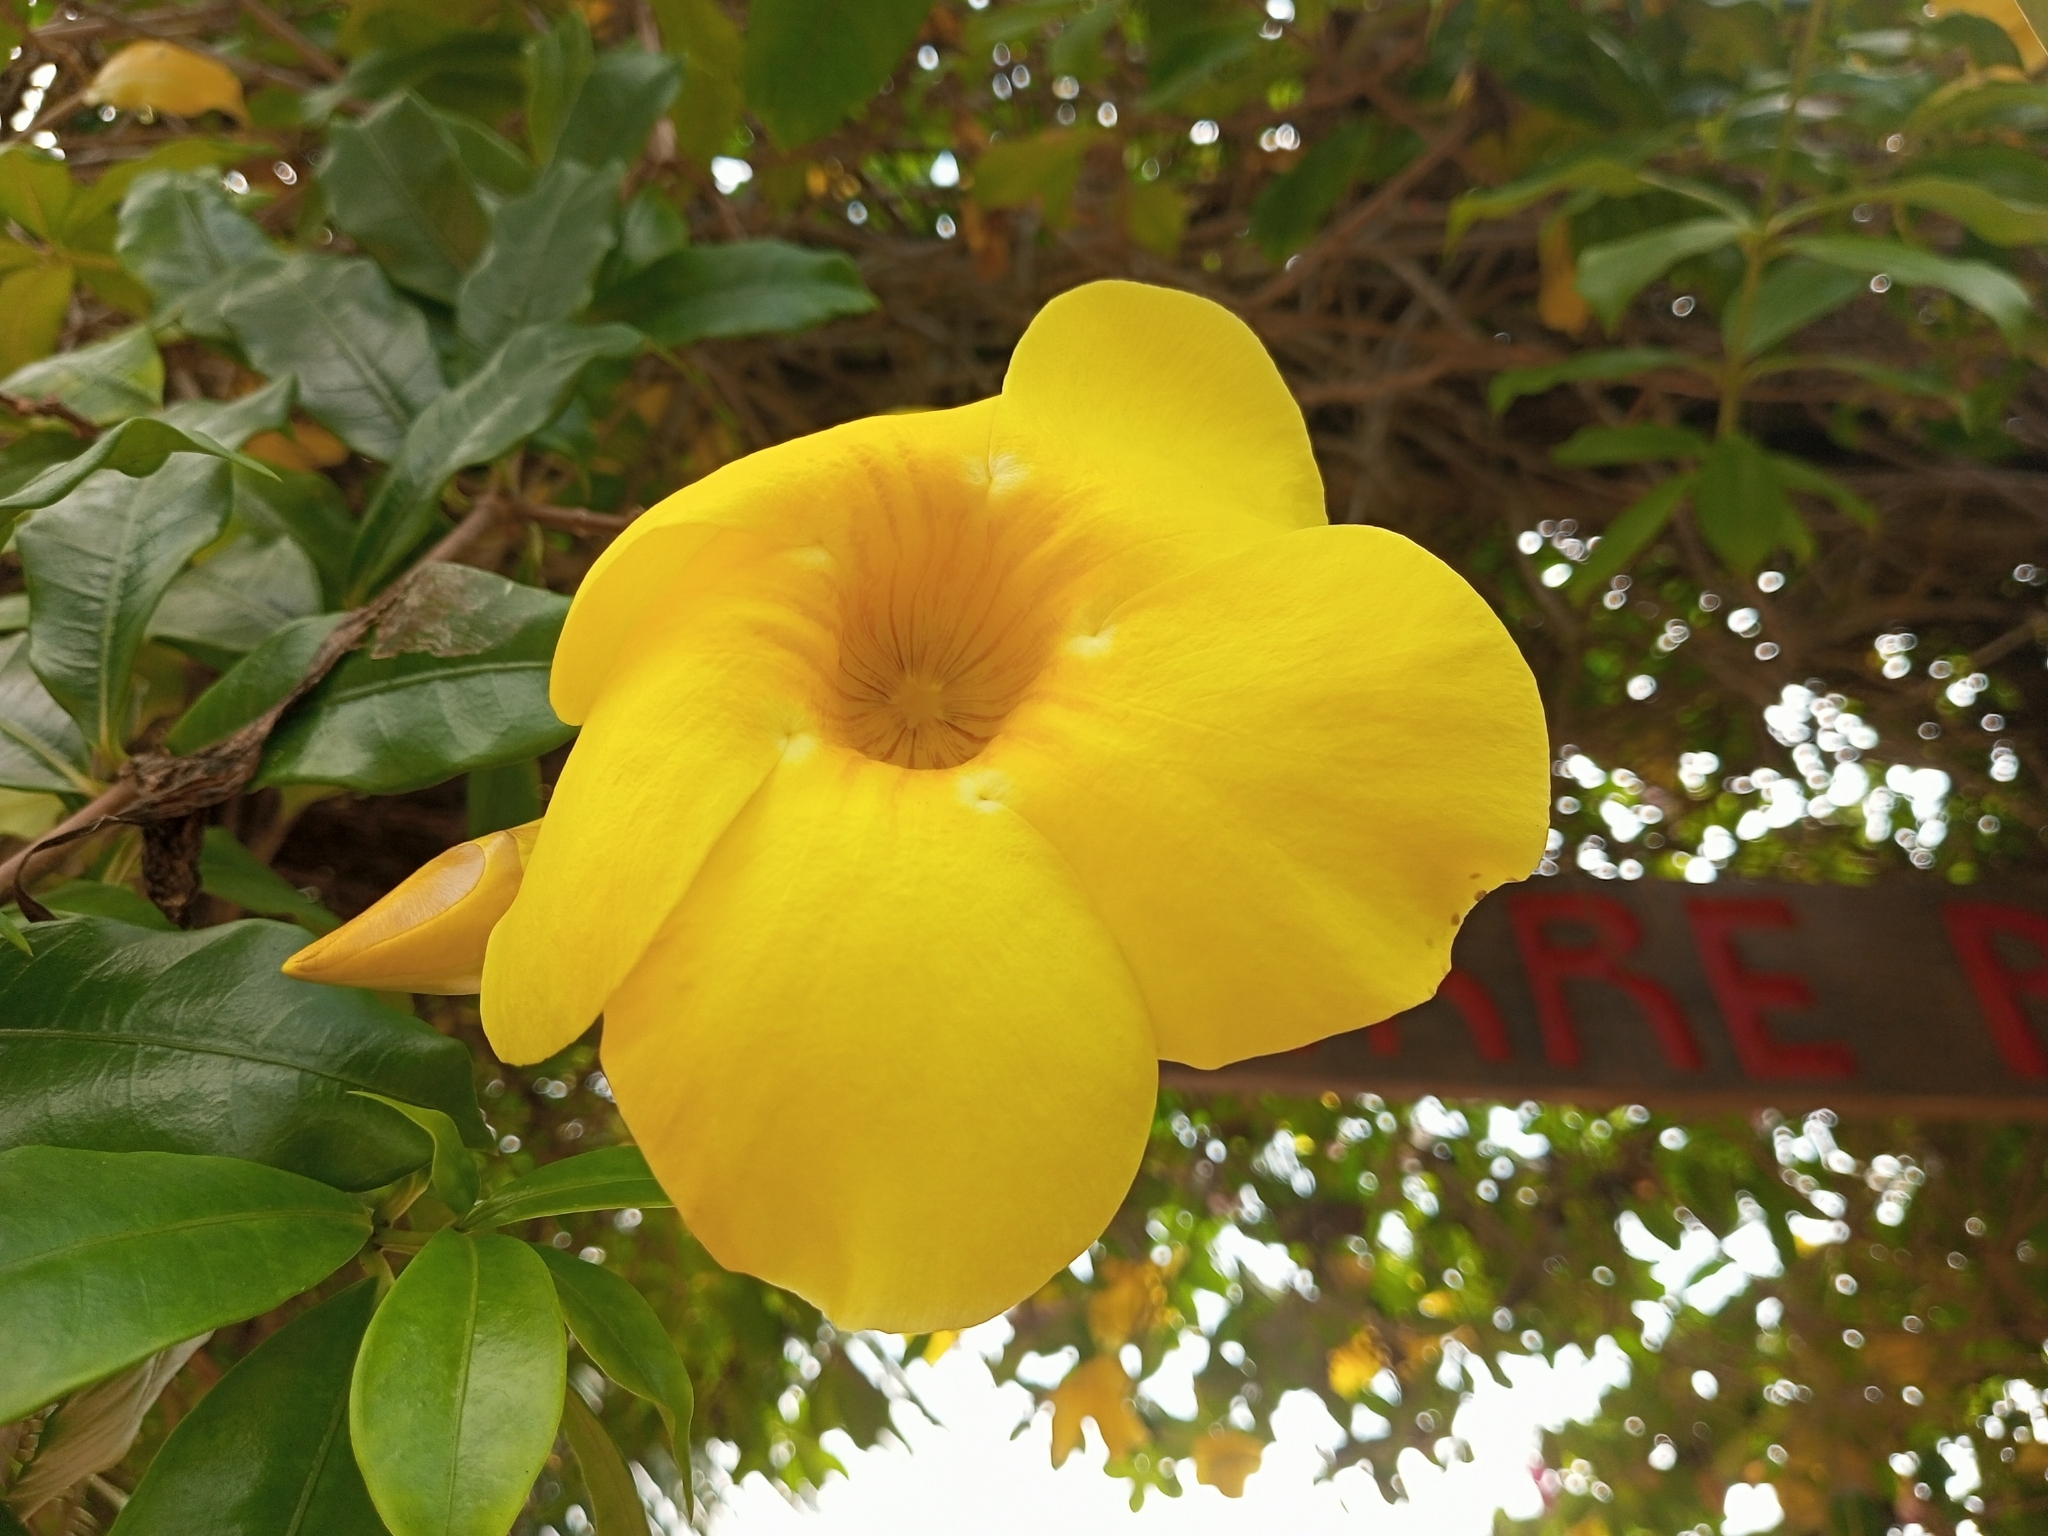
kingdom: Plantae
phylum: Tracheophyta
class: Magnoliopsida
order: Gentianales
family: Apocynaceae
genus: Allamanda
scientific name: Allamanda cathartica
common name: Golden trumpet
